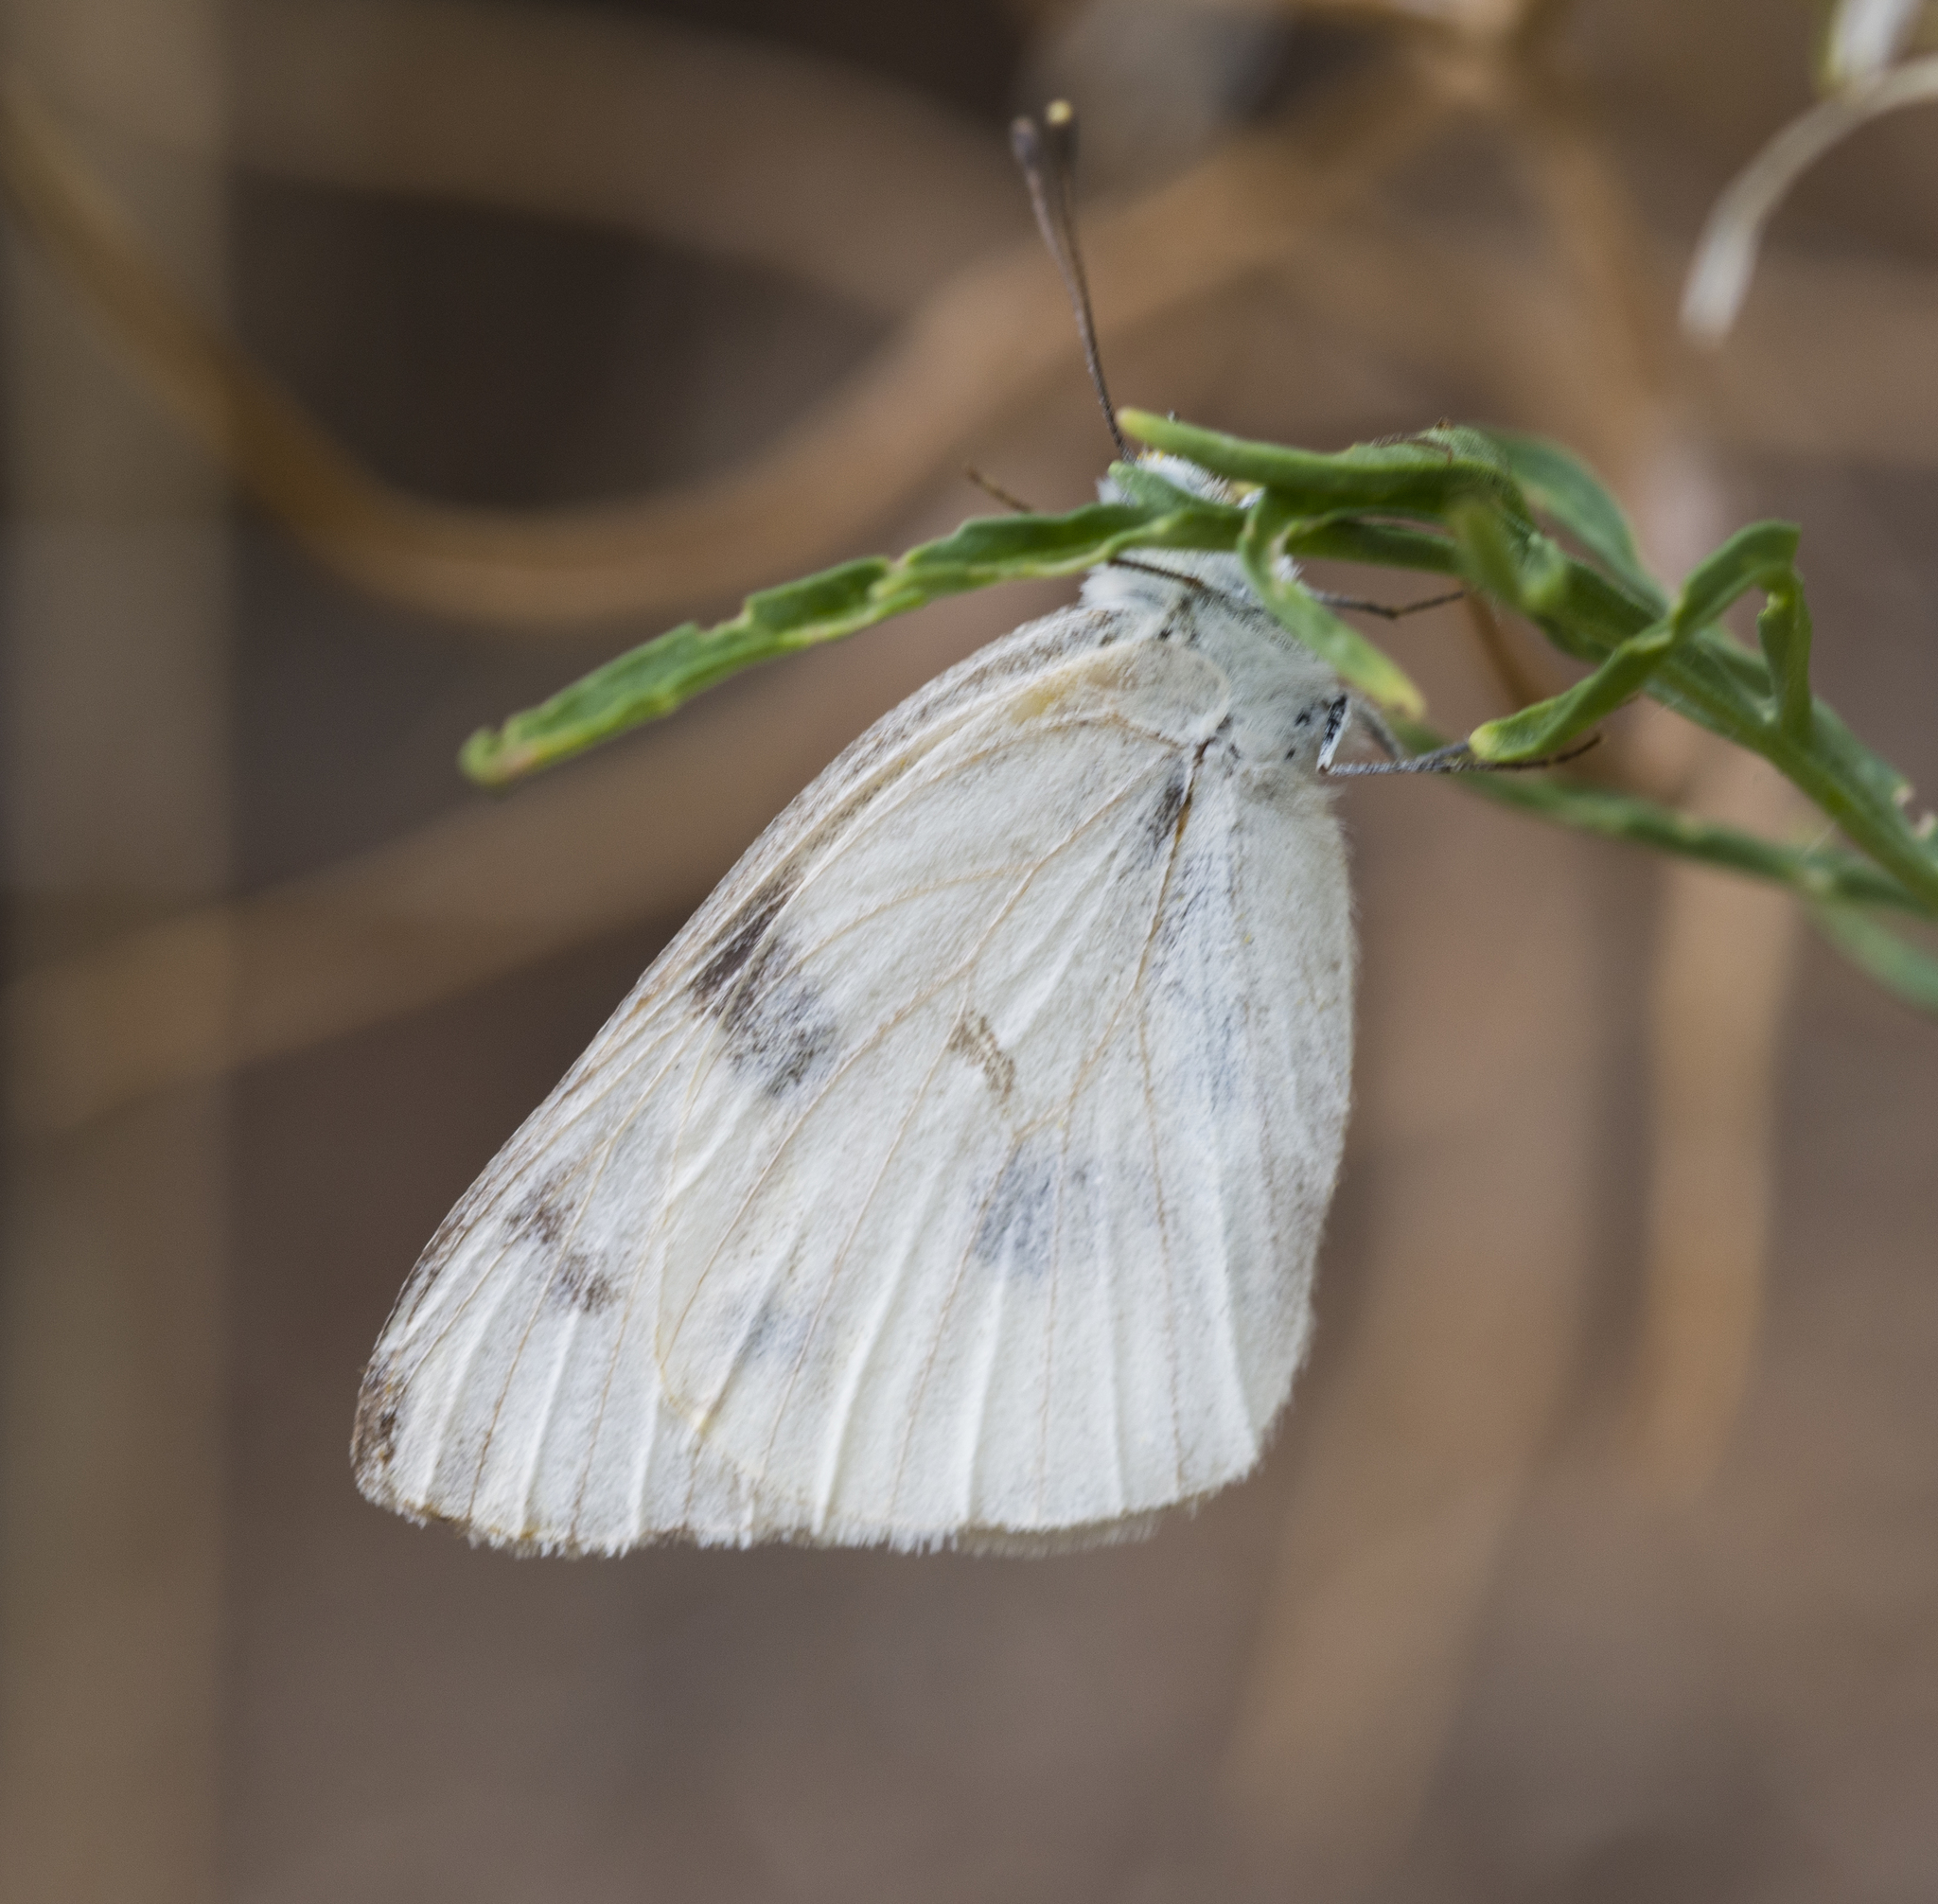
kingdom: Animalia
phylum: Arthropoda
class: Insecta
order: Lepidoptera
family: Pieridae
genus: Pontia
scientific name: Pontia protodice
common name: Checkered white
